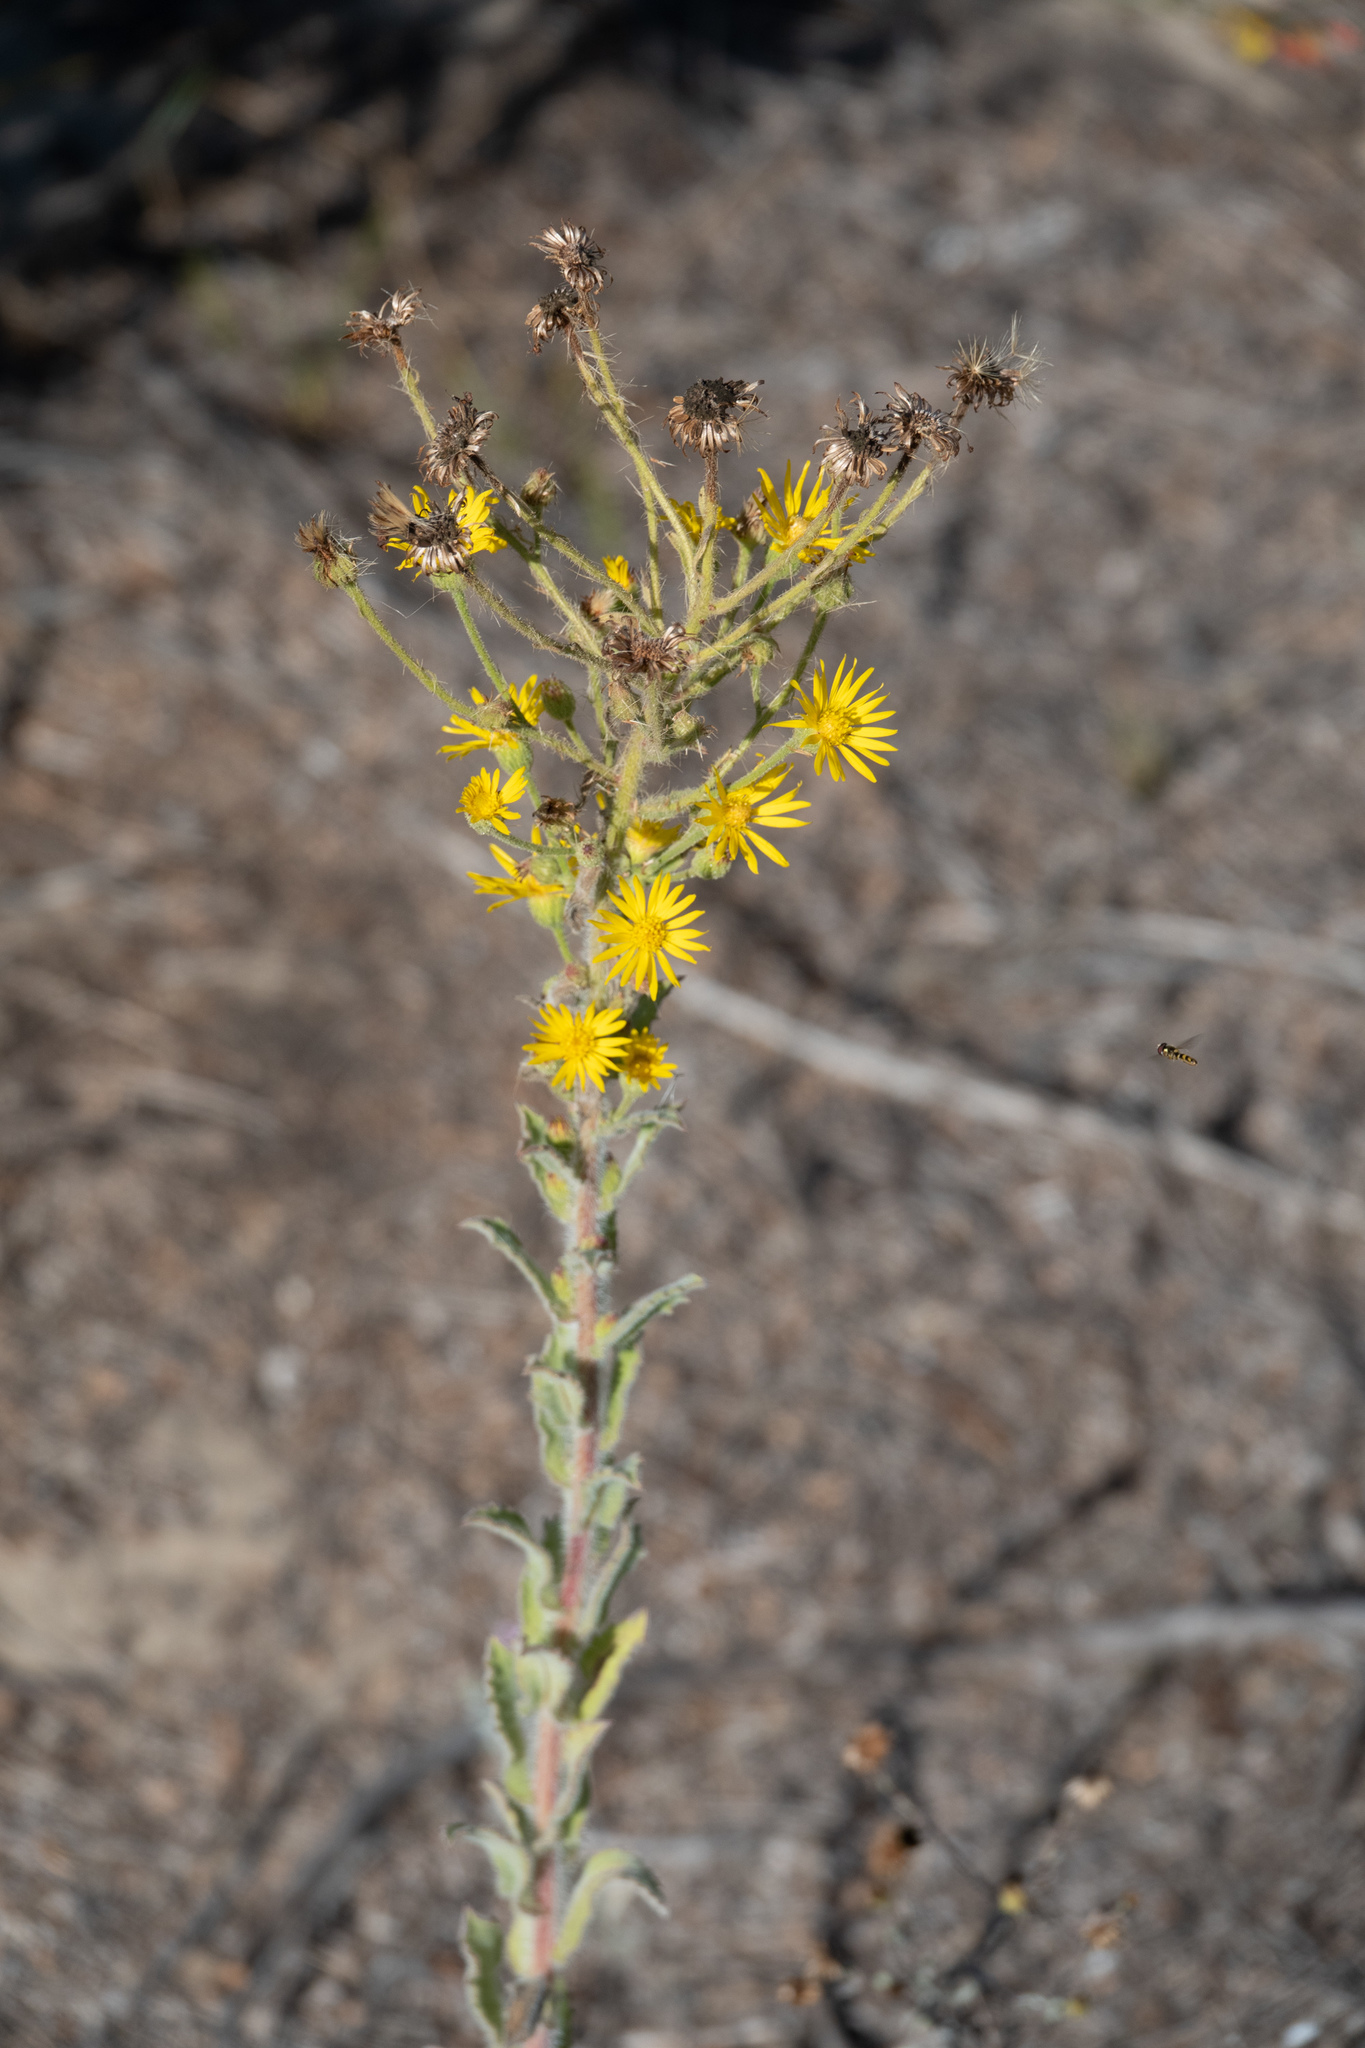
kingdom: Plantae
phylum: Tracheophyta
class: Magnoliopsida
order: Asterales
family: Asteraceae
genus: Heterotheca
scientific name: Heterotheca grandiflora
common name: Telegraphweed
